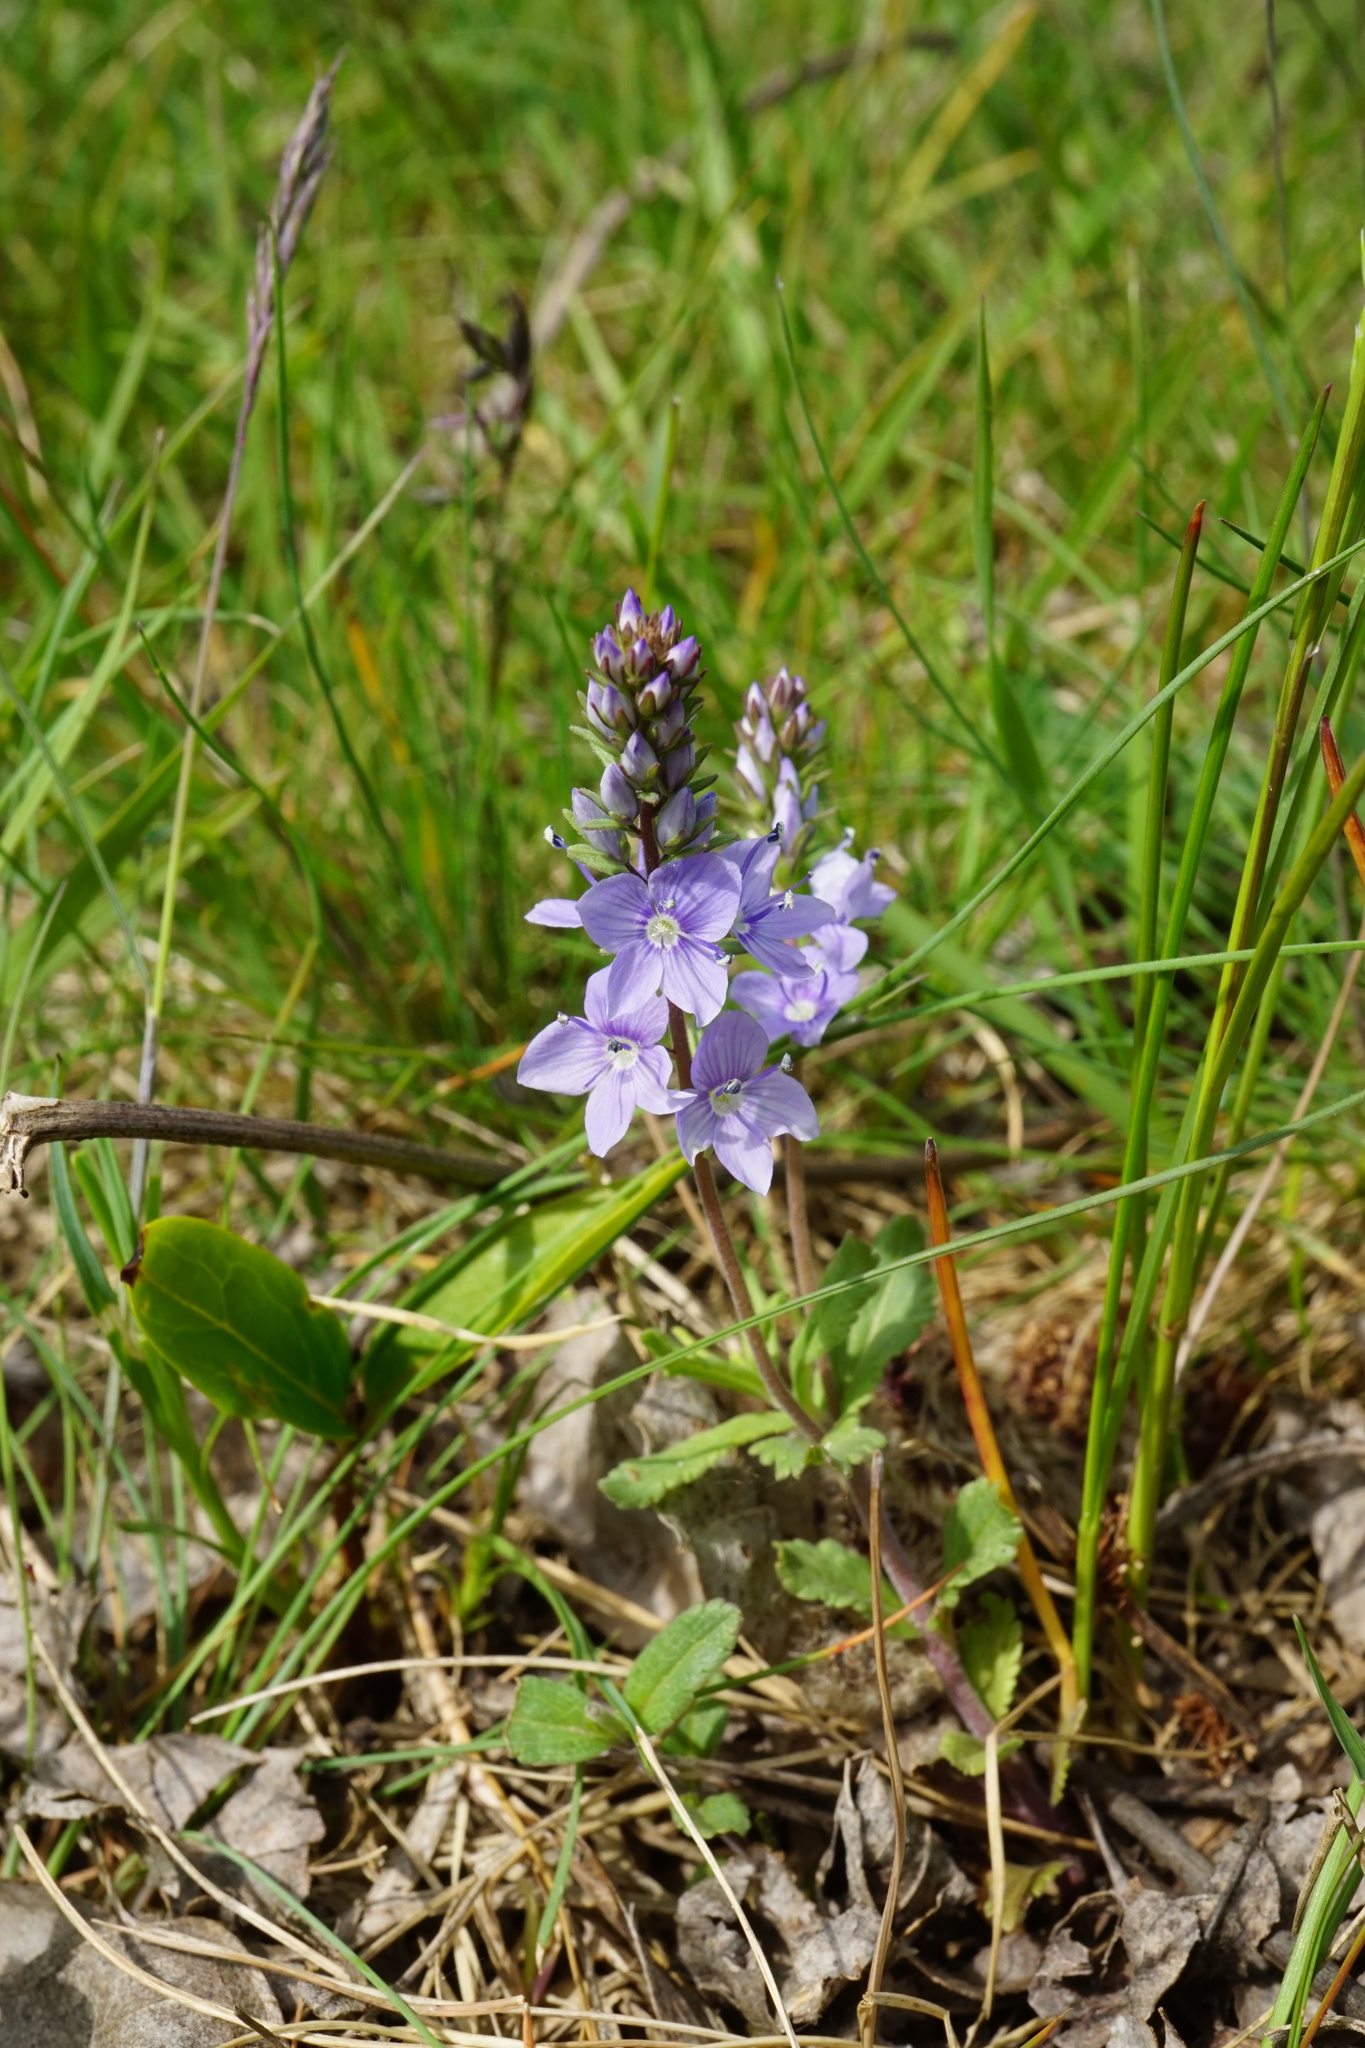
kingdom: Plantae
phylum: Tracheophyta
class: Magnoliopsida
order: Lamiales
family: Plantaginaceae
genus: Veronica
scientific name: Veronica prostrata
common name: Prostrate speedwell
